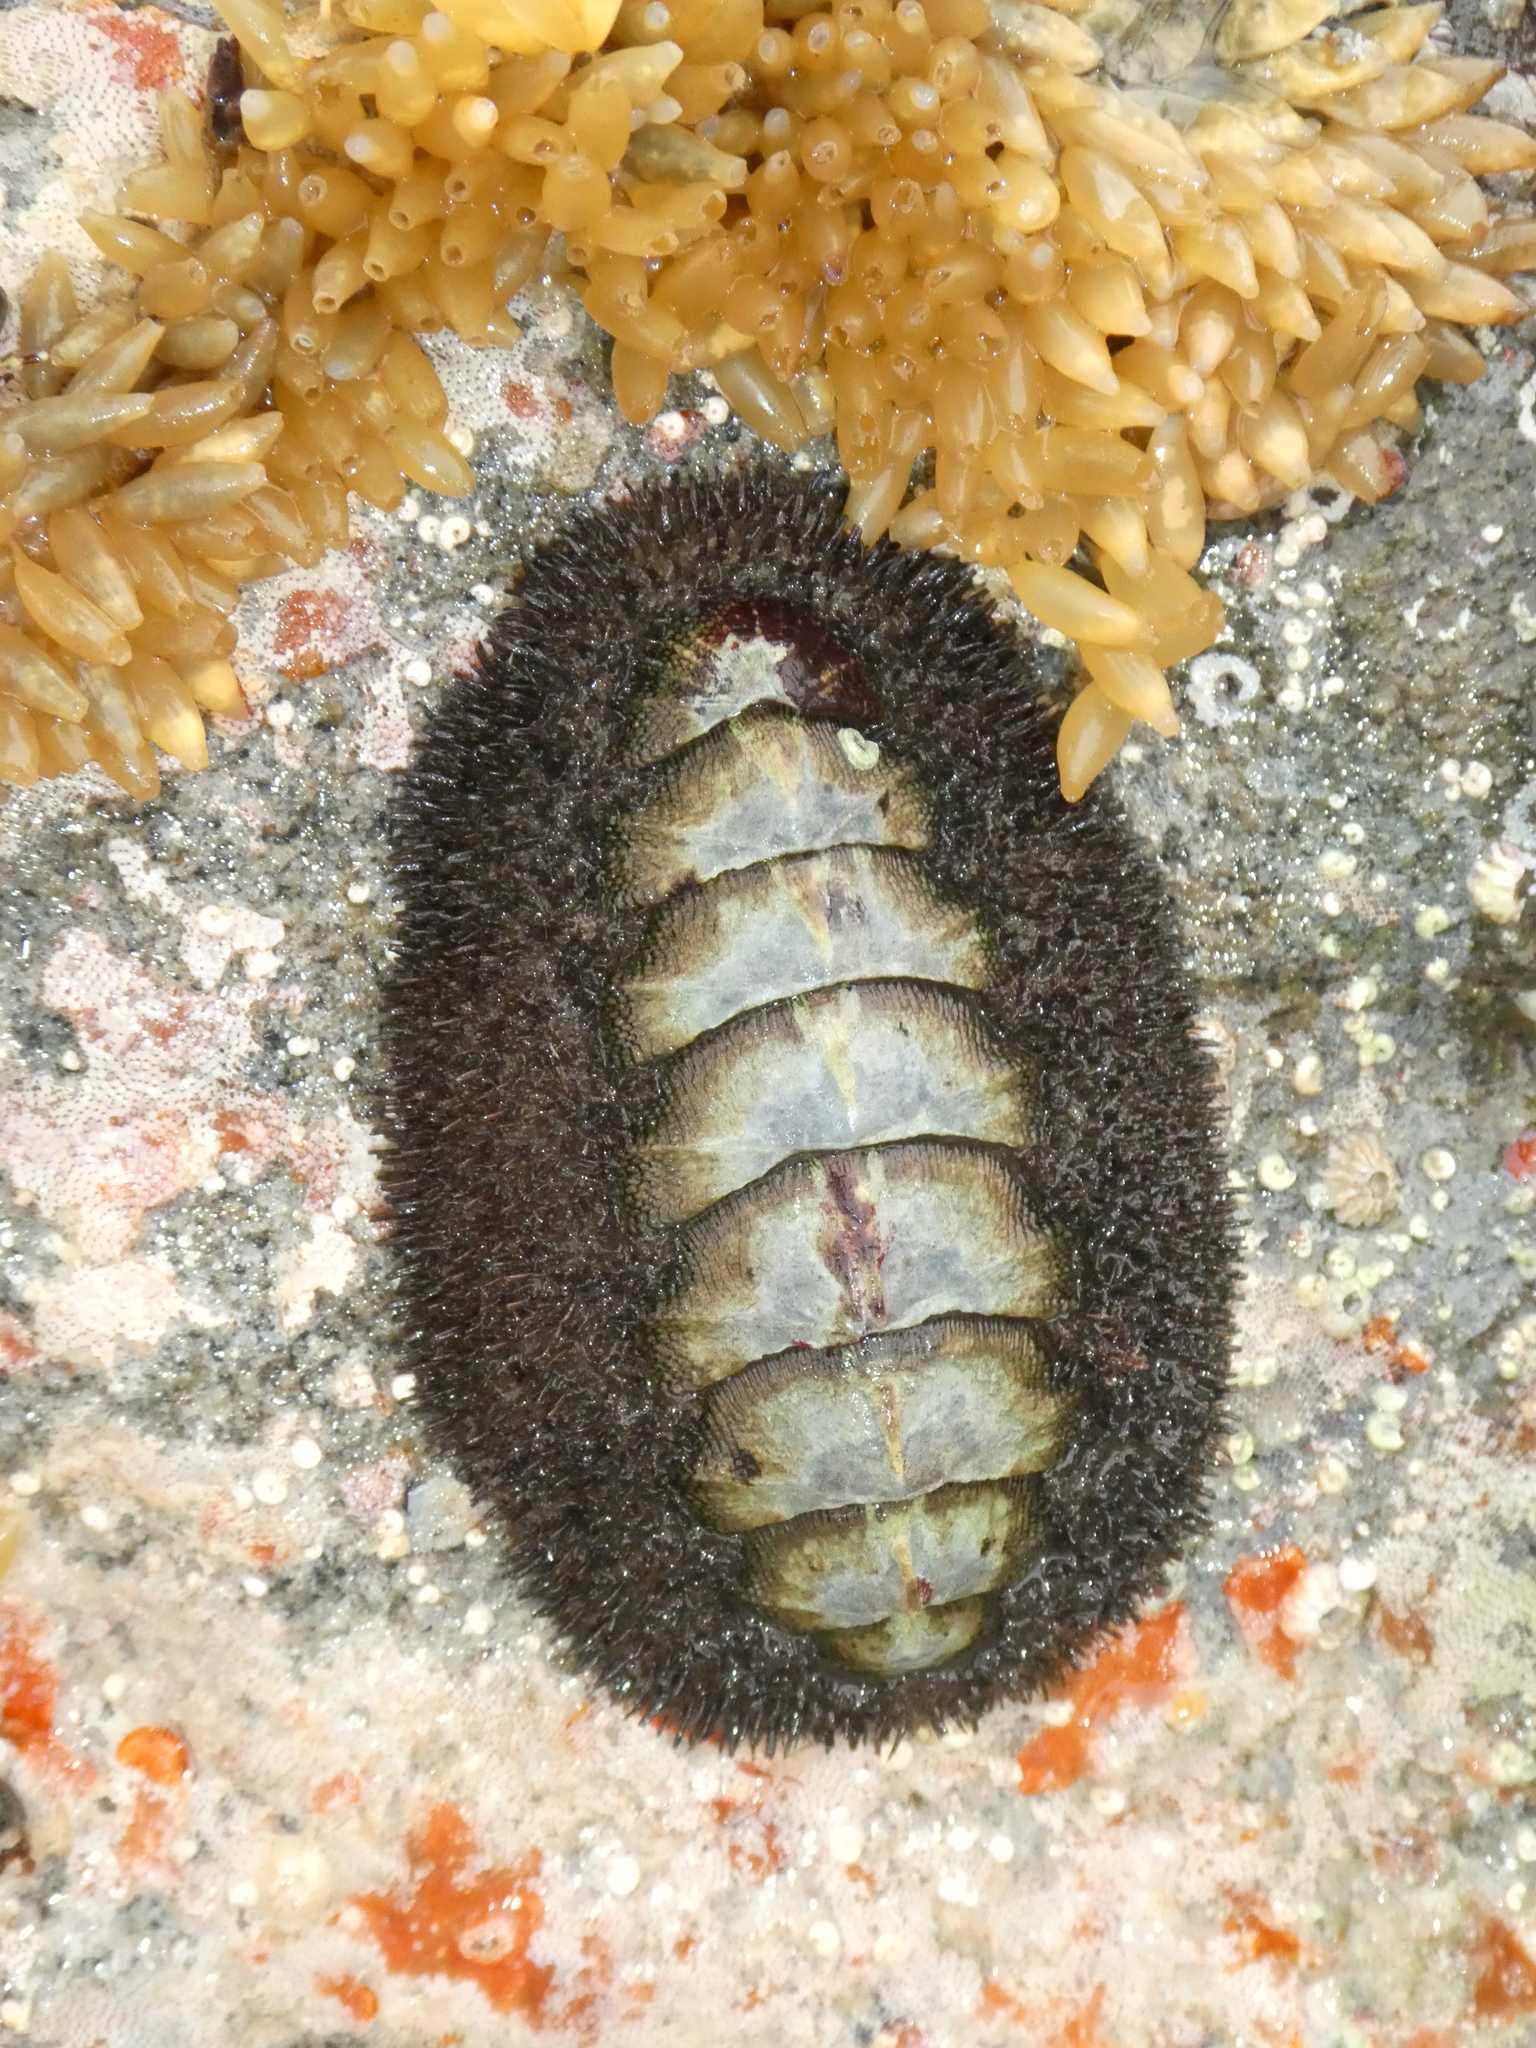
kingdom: Animalia
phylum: Mollusca
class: Polyplacophora
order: Chitonida
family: Mopaliidae
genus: Mopalia
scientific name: Mopalia muscosa
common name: Mossy chiton
